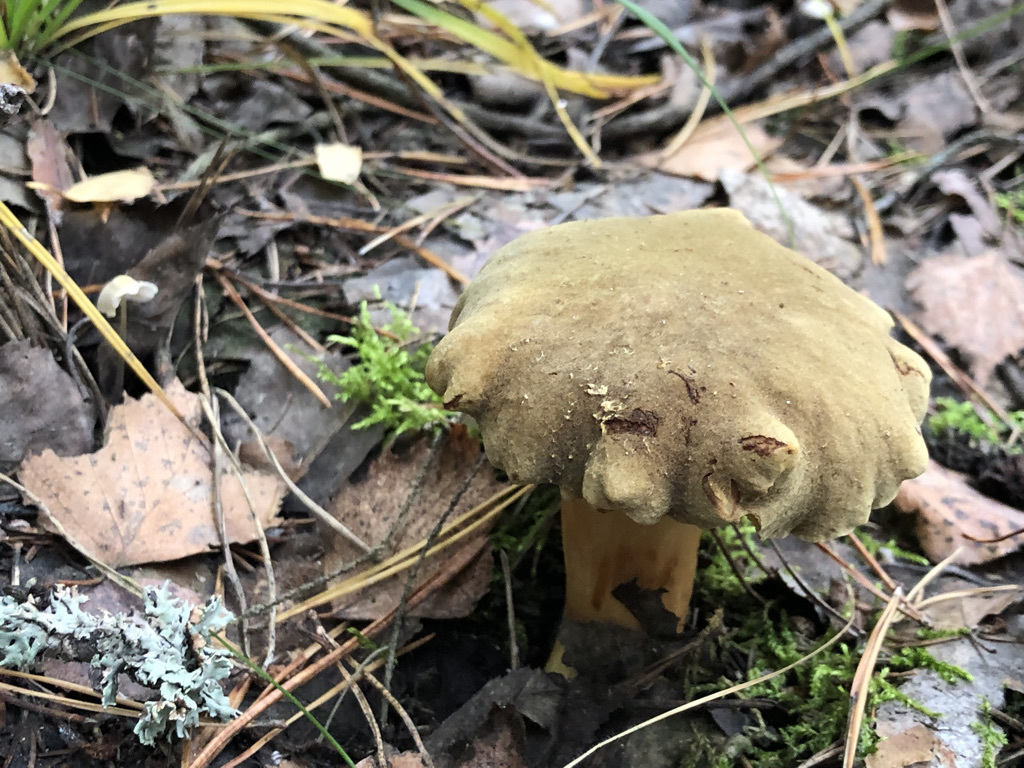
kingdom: Fungi
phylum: Basidiomycota
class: Agaricomycetes
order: Boletales
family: Boletaceae
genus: Xerocomus
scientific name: Xerocomus subtomentosus
